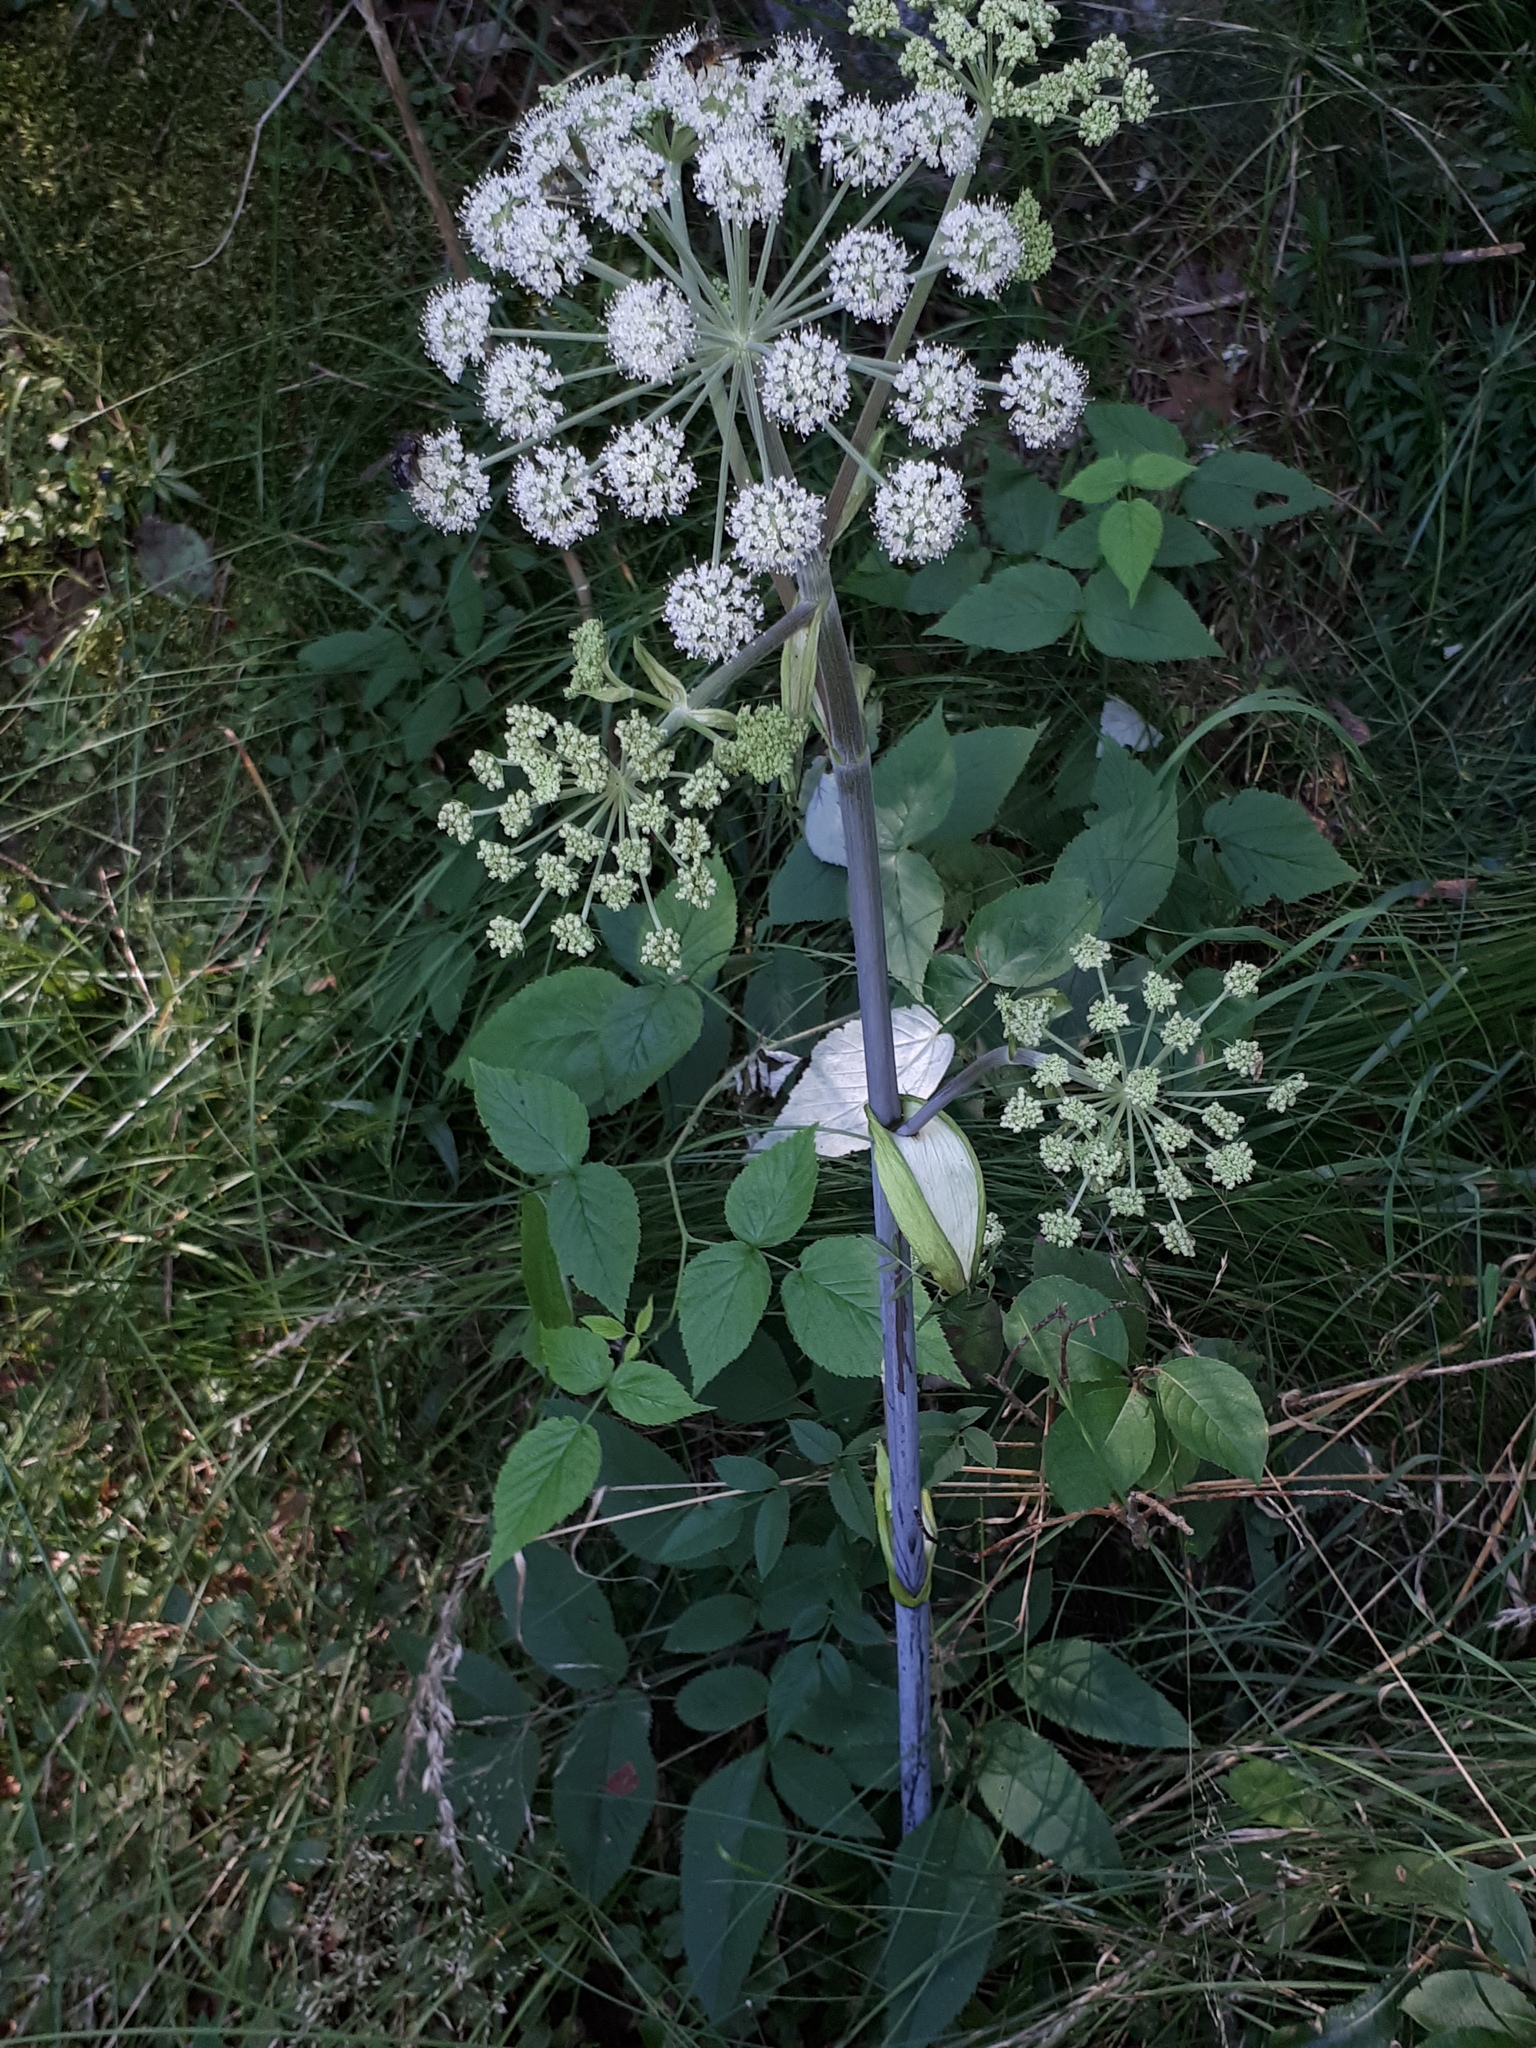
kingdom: Plantae
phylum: Tracheophyta
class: Magnoliopsida
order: Apiales
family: Apiaceae
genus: Angelica
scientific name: Angelica sylvestris
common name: Wild angelica
